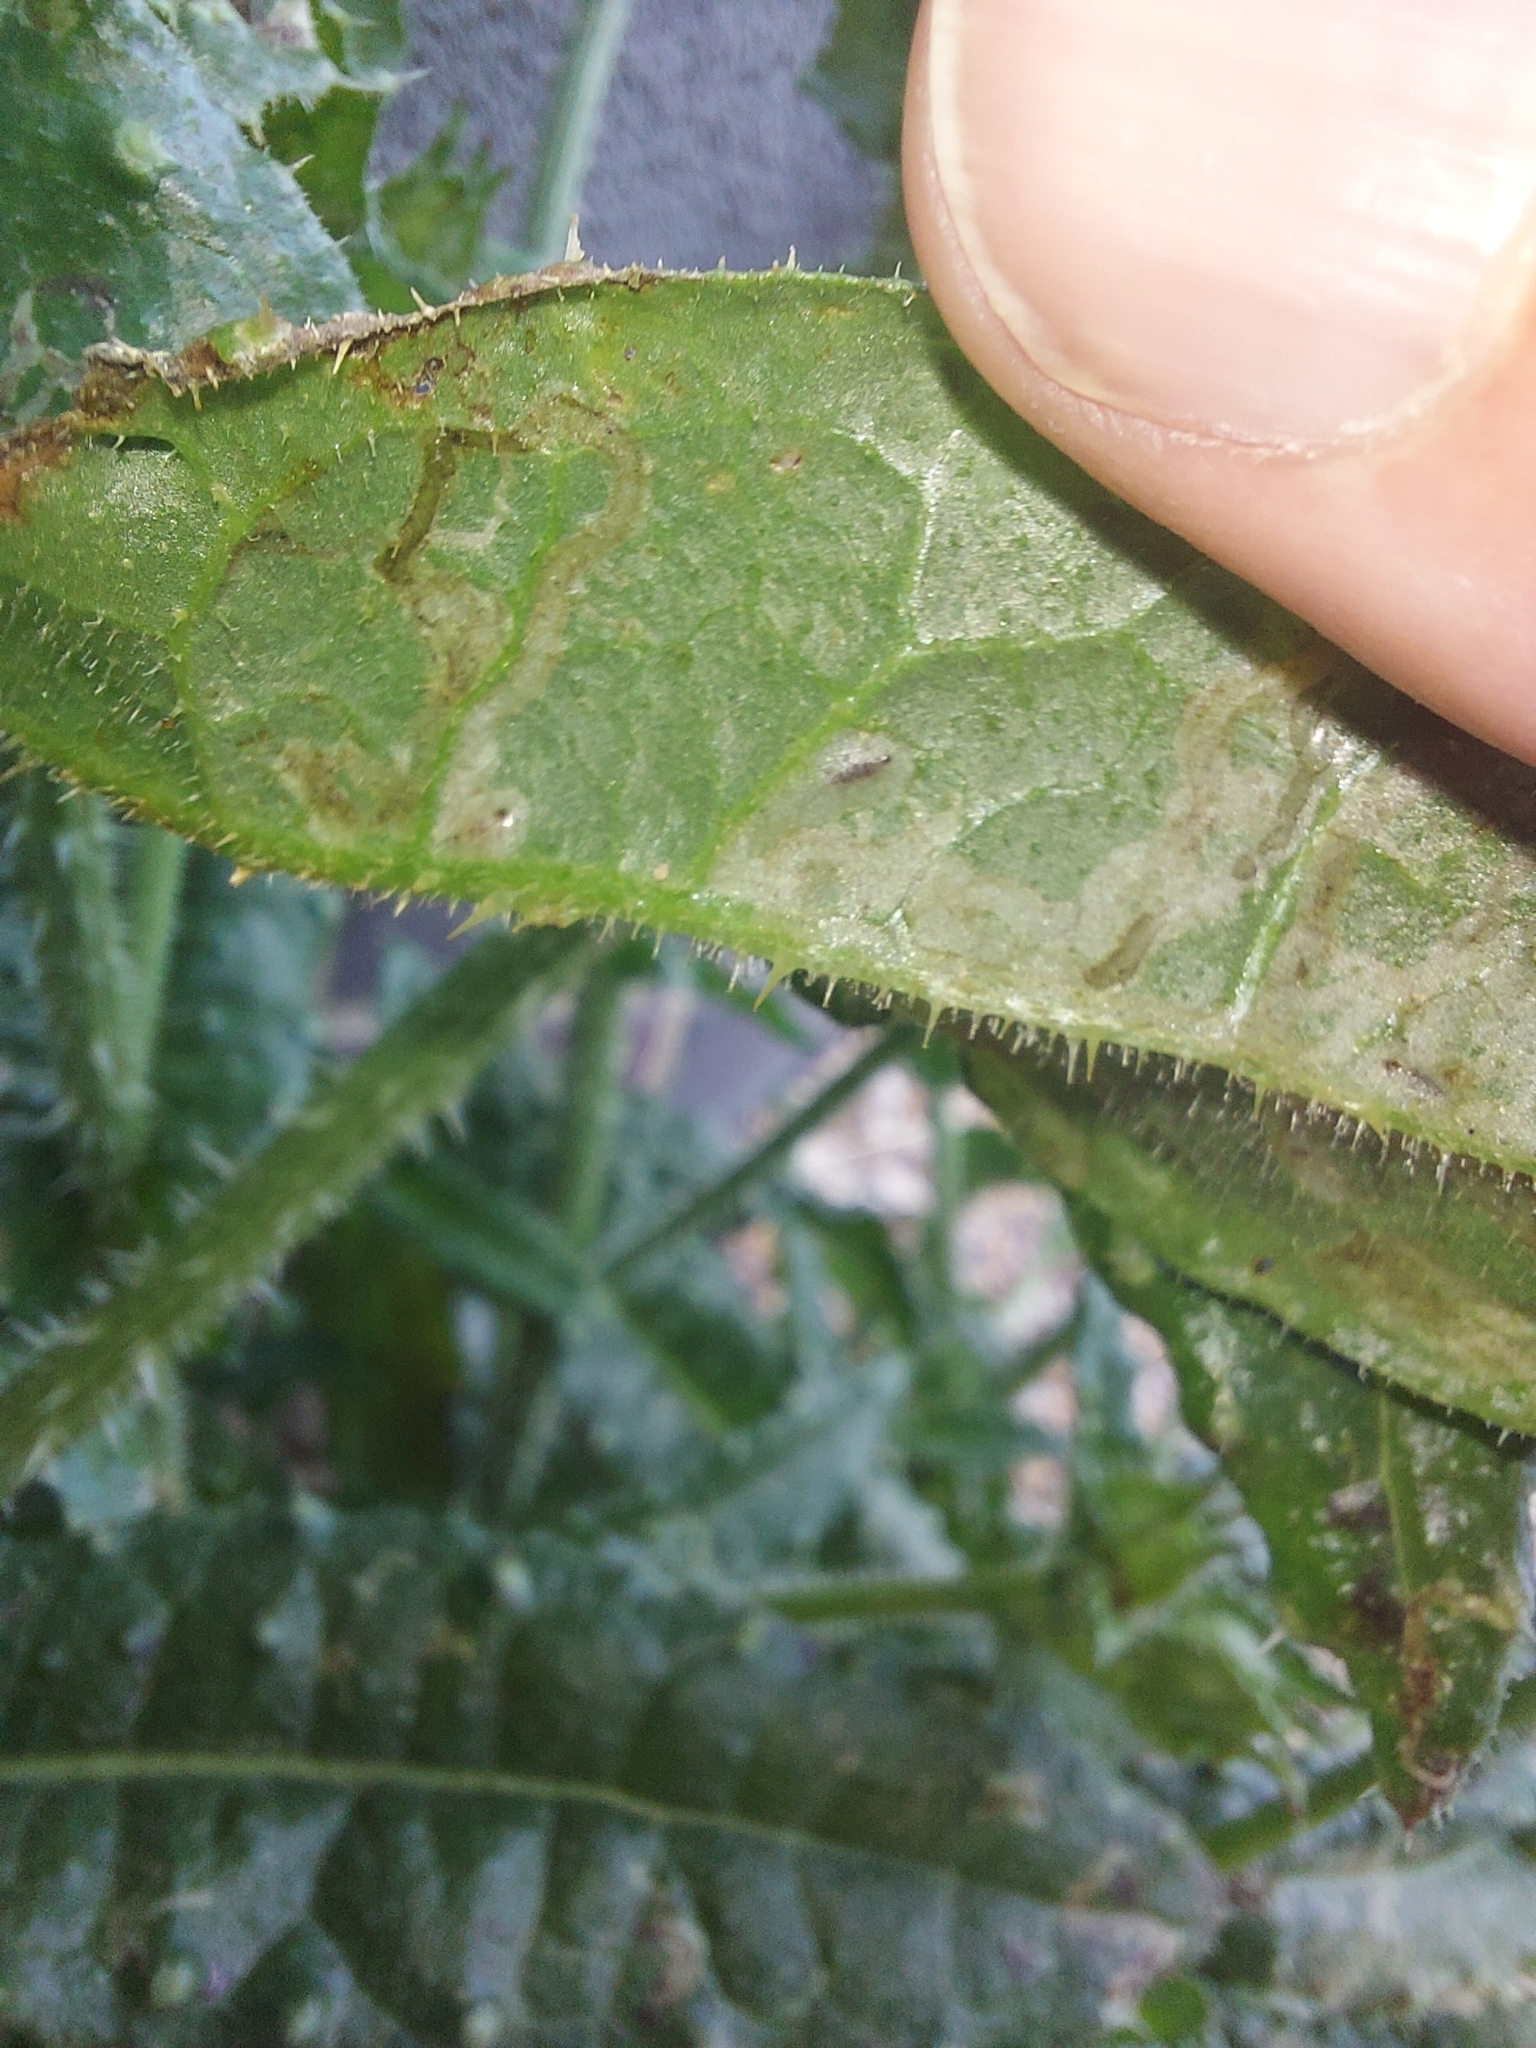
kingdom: Plantae
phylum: Tracheophyta
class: Magnoliopsida
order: Asterales
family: Asteraceae
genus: Helminthotheca
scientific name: Helminthotheca echioides
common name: Ox-tongue
